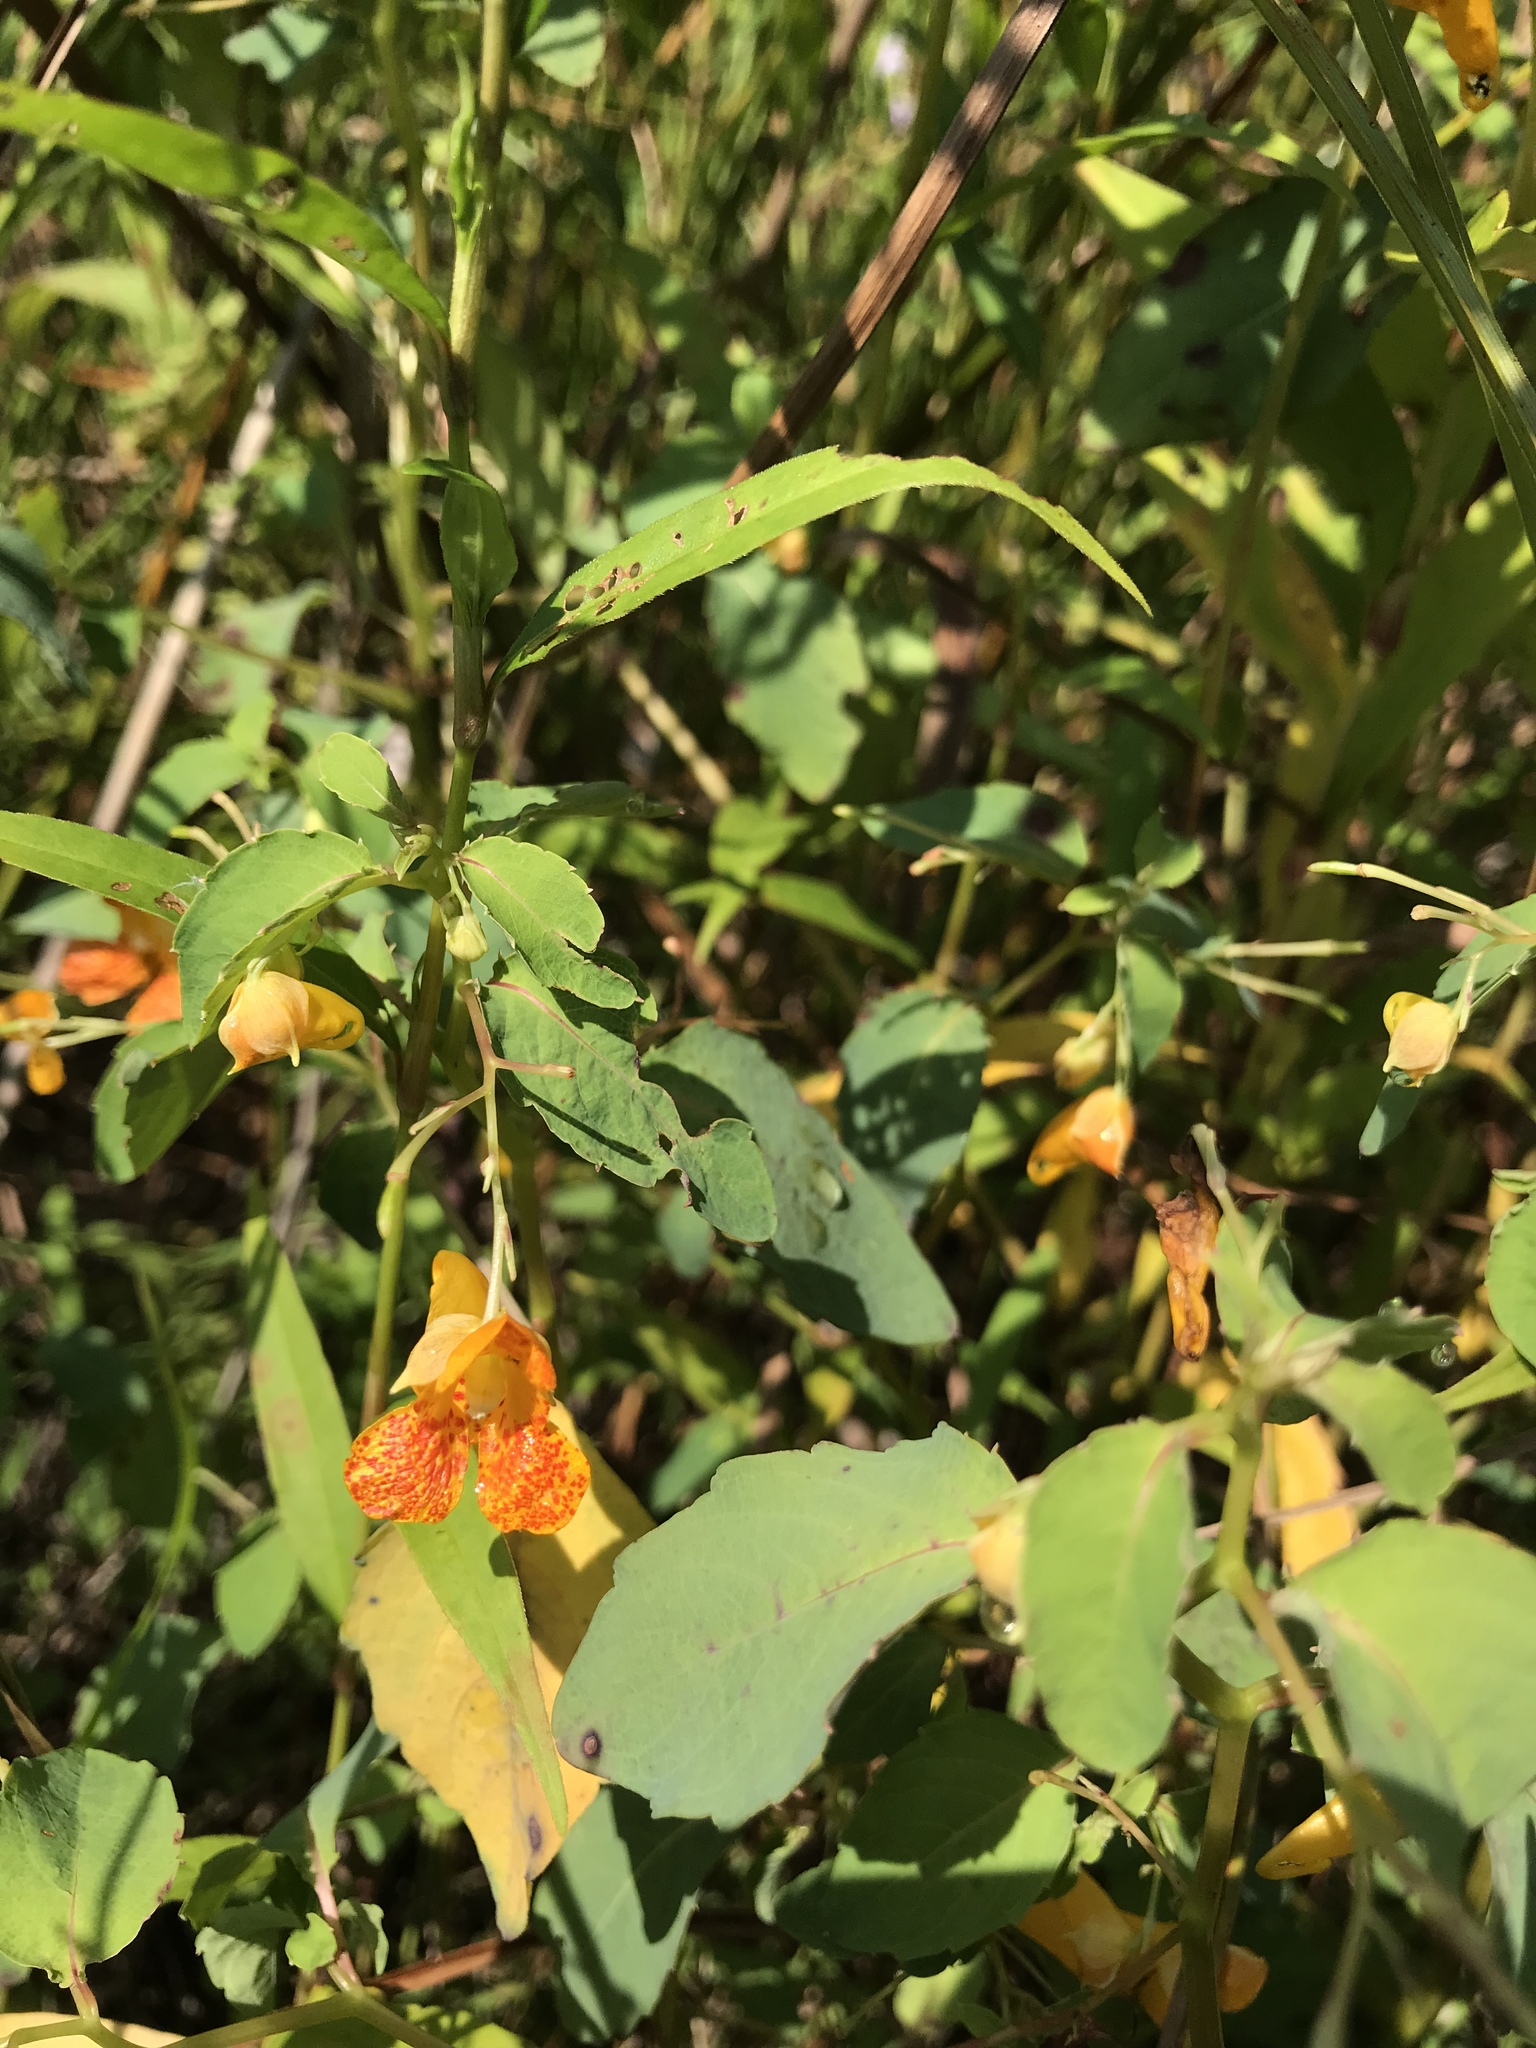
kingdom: Plantae
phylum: Tracheophyta
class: Magnoliopsida
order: Ericales
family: Balsaminaceae
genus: Impatiens
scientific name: Impatiens capensis
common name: Orange balsam
